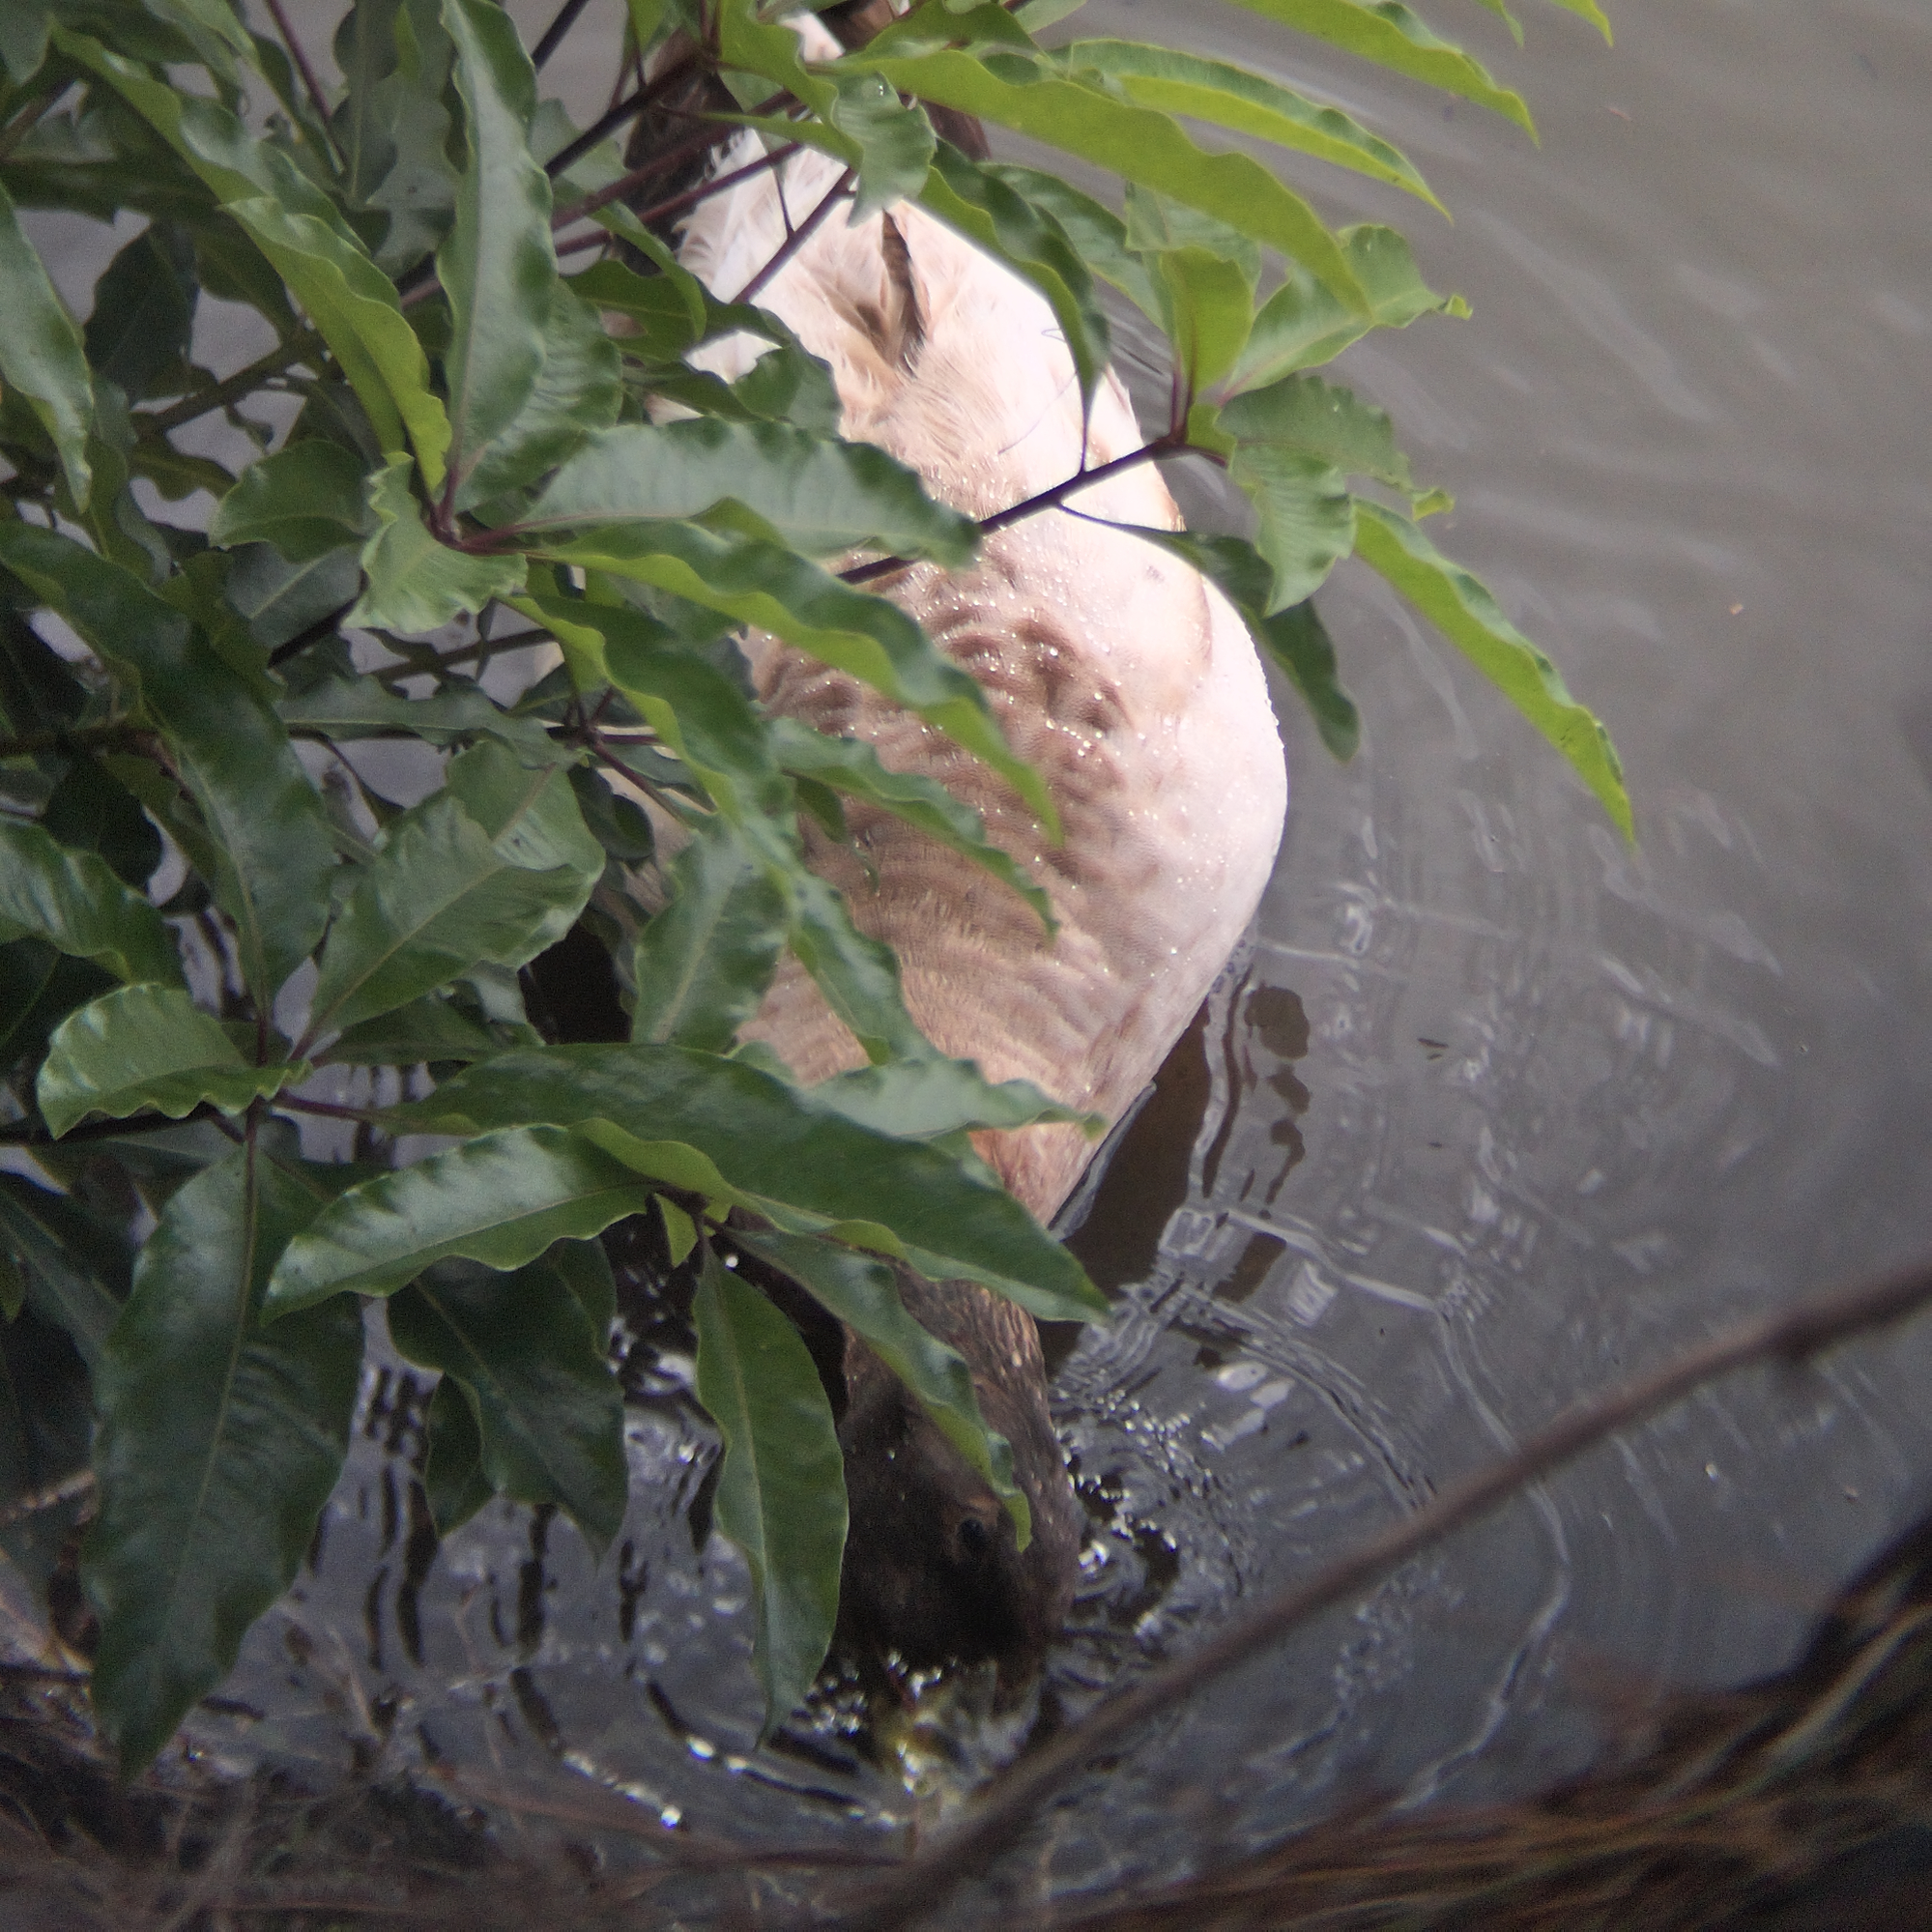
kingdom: Animalia
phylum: Chordata
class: Aves
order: Anseriformes
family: Anatidae
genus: Anas
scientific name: Anas platyrhynchos
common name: Mallard
